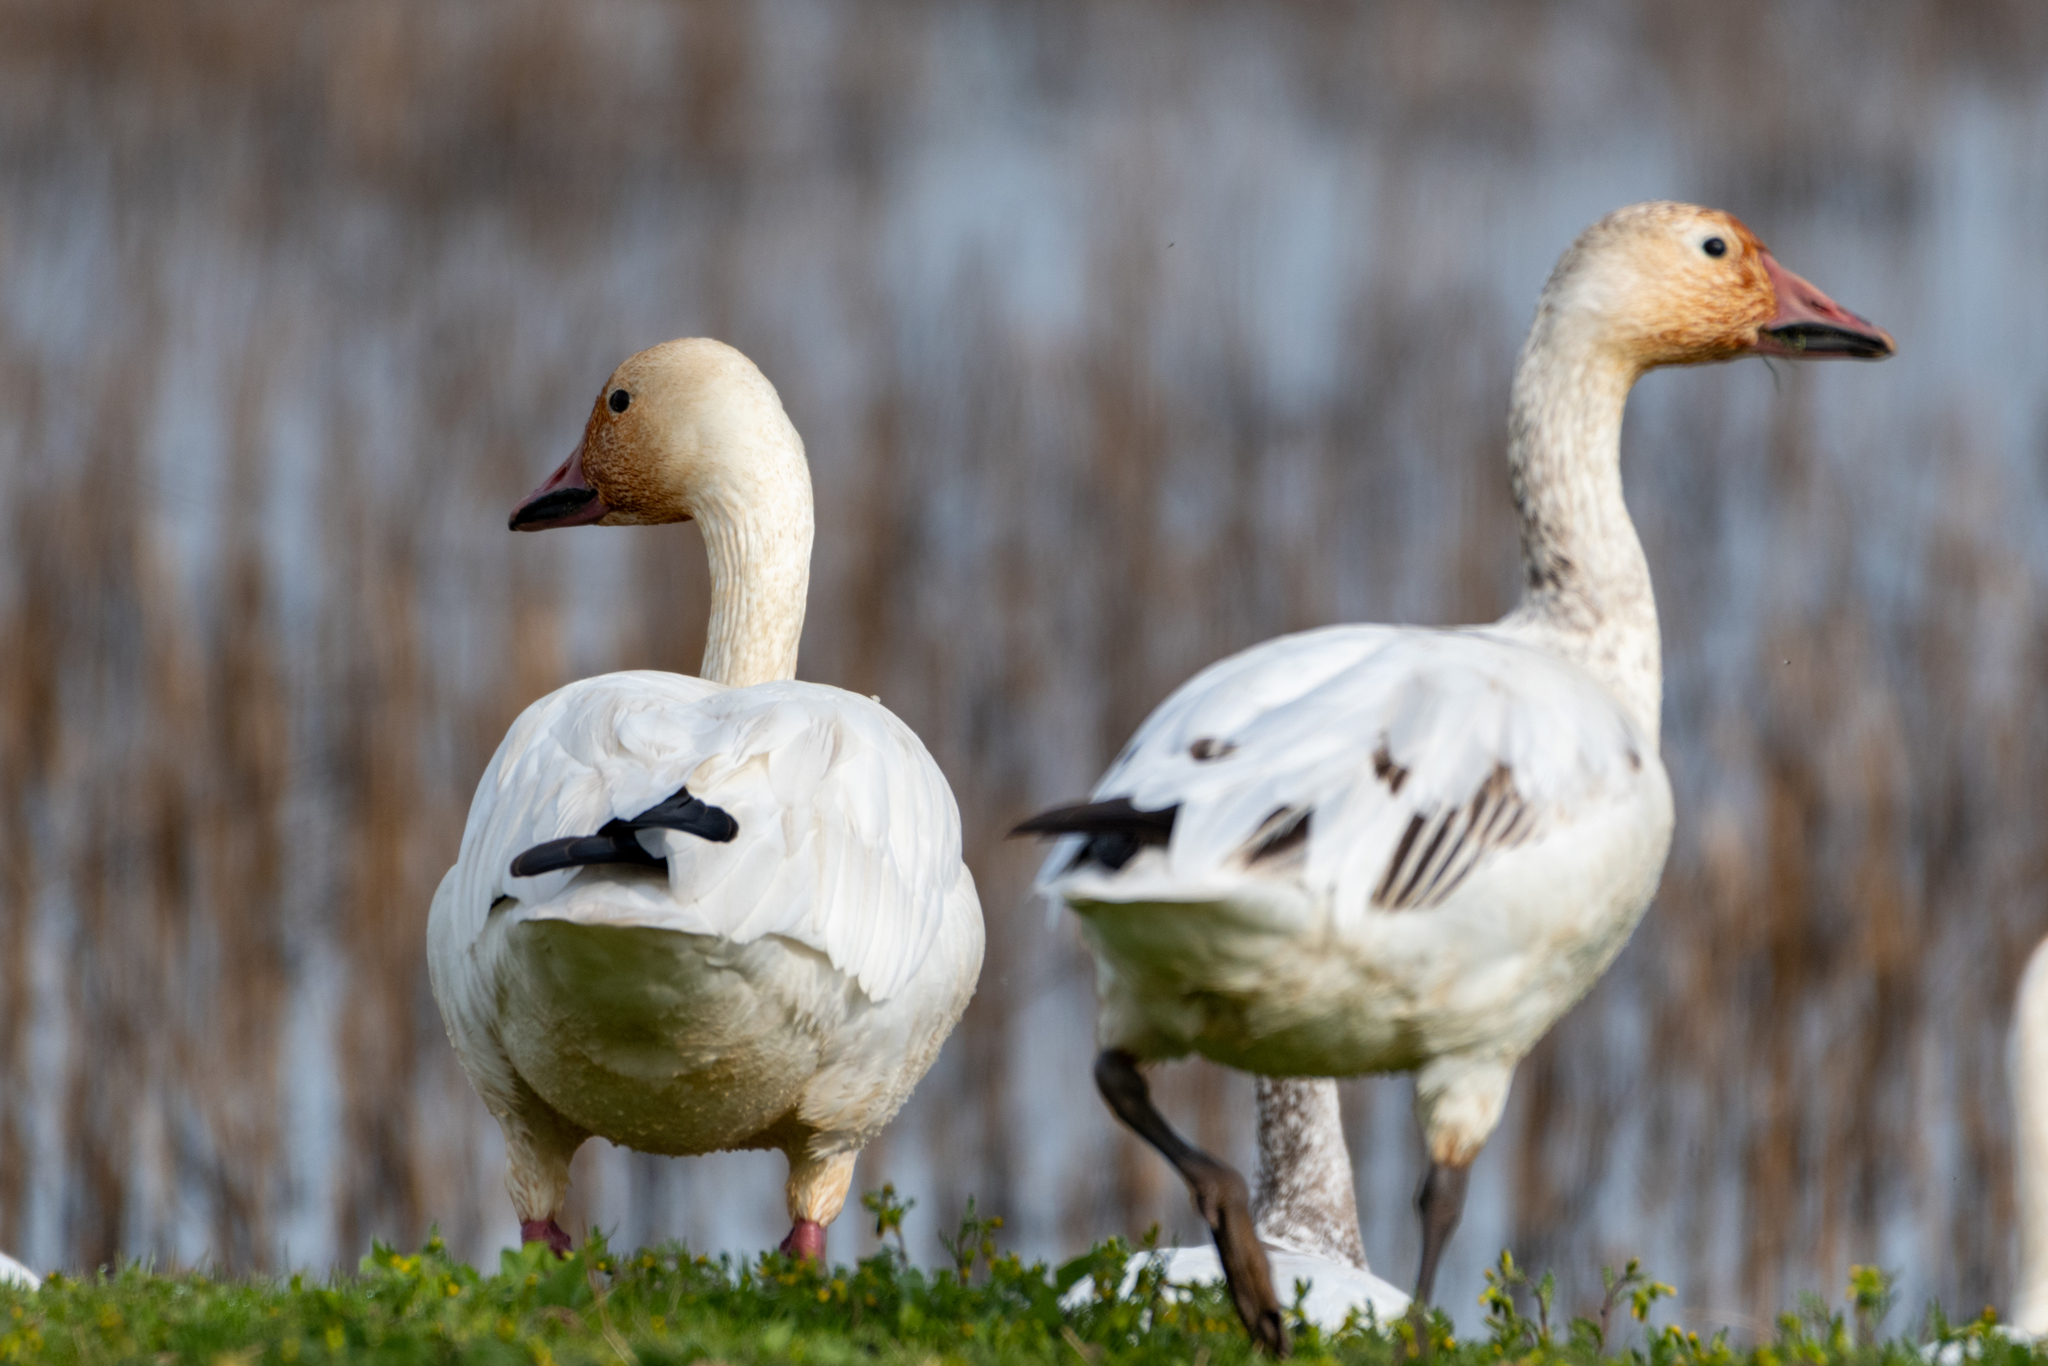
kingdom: Animalia
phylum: Chordata
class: Aves
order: Anseriformes
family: Anatidae
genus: Anser
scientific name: Anser caerulescens
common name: Snow goose
